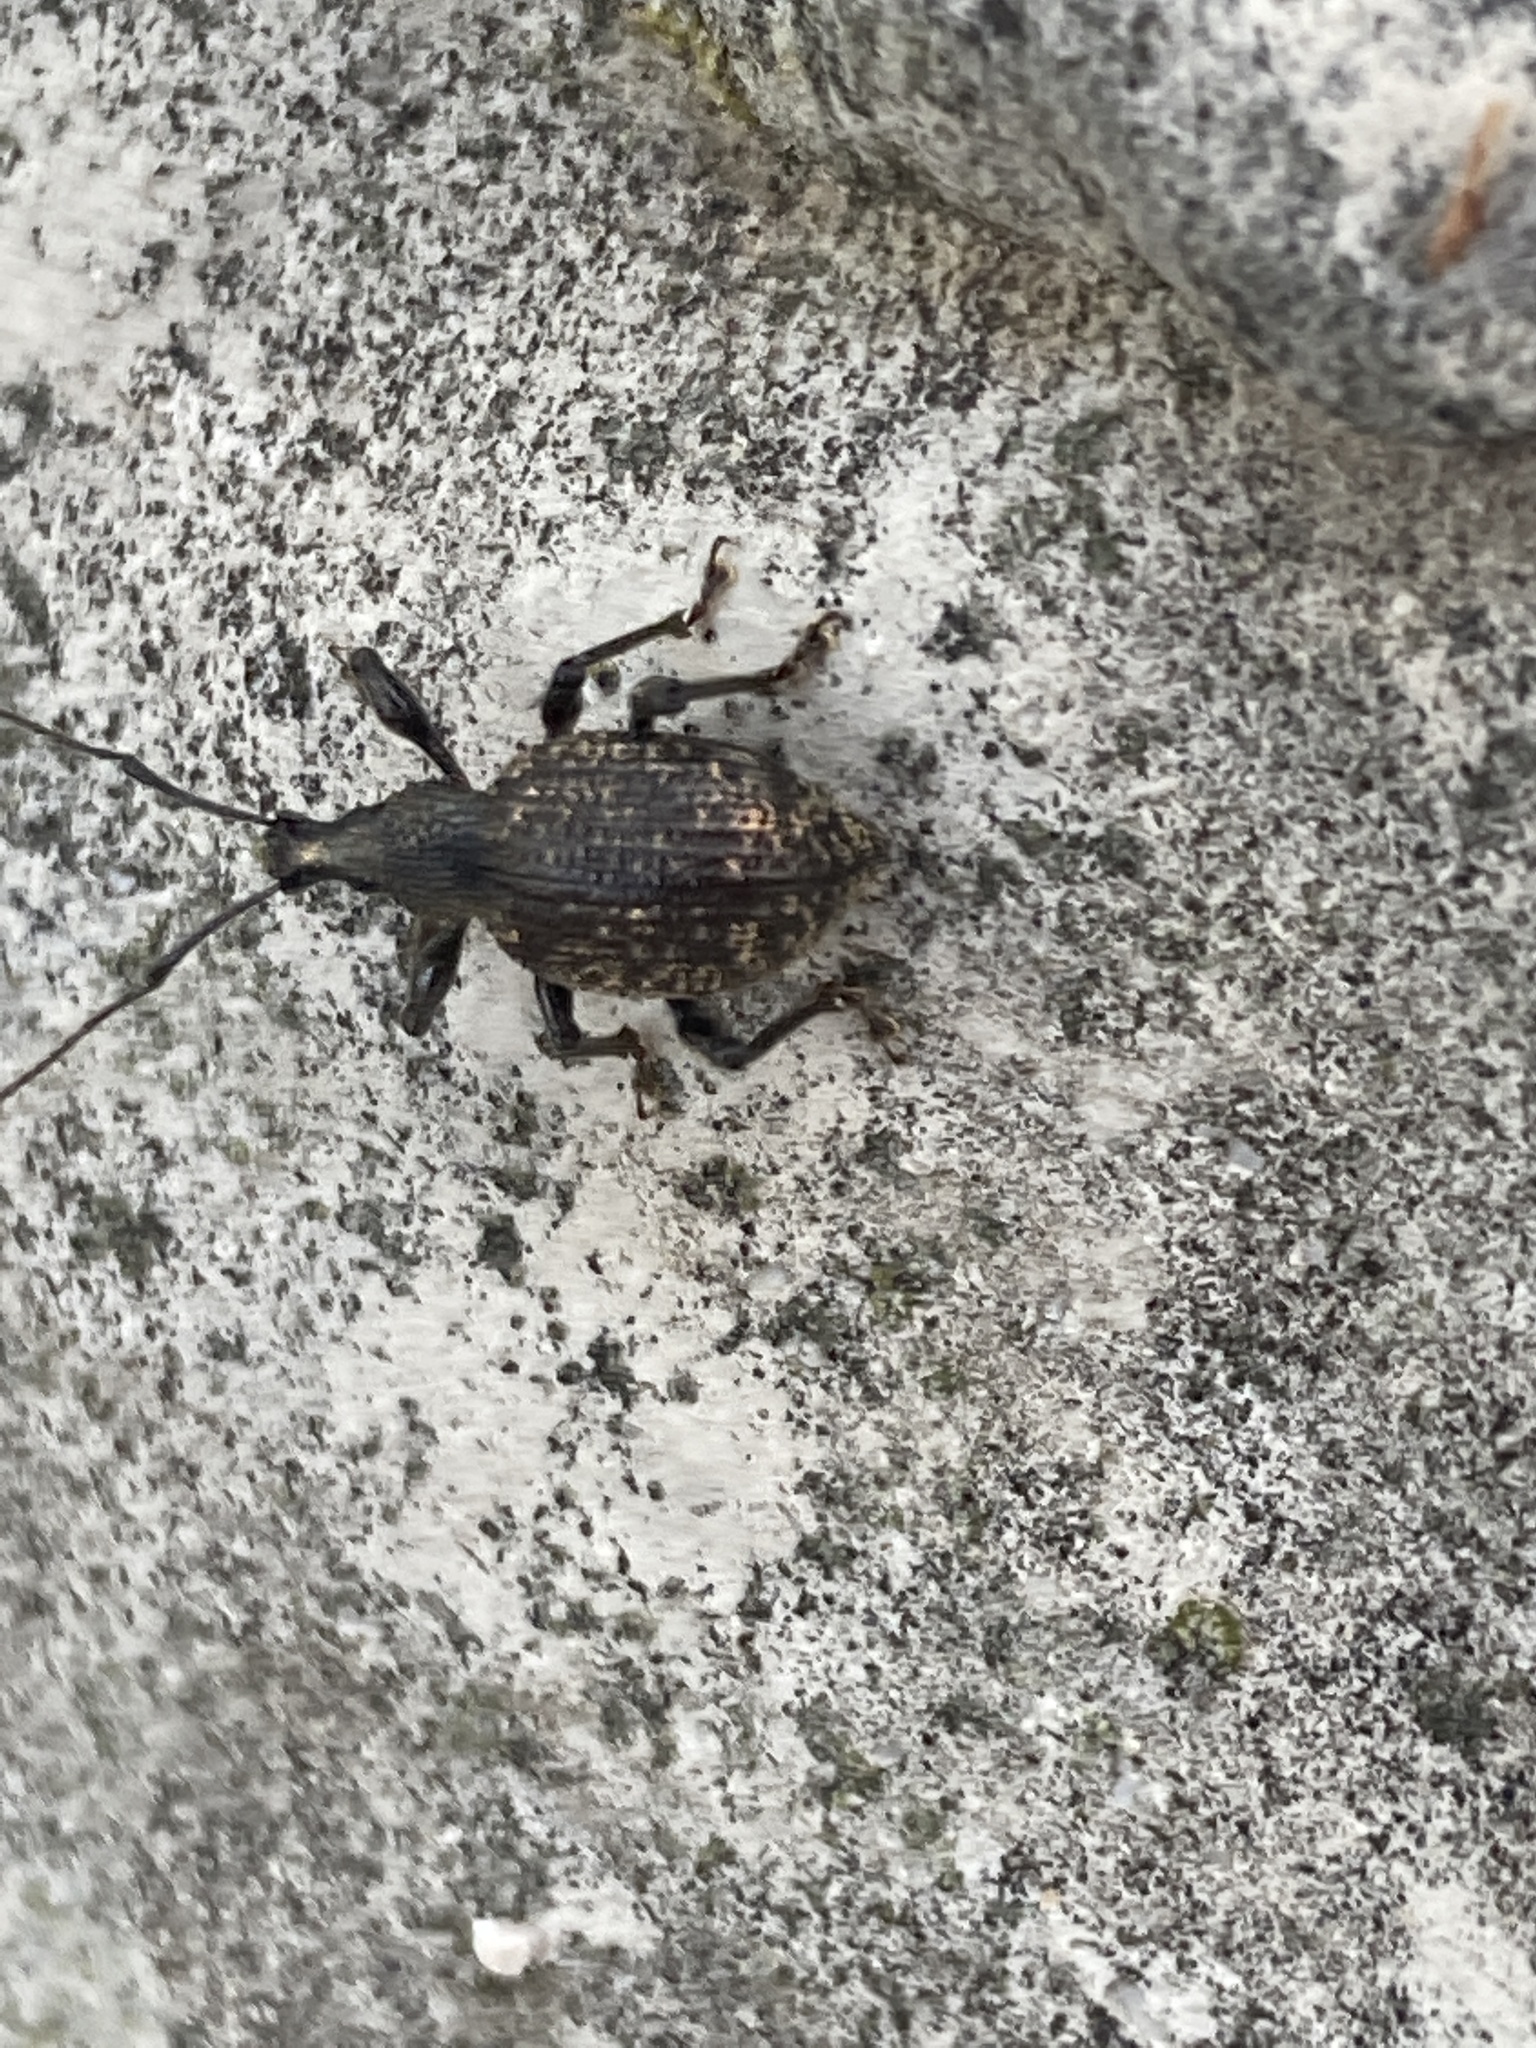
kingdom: Animalia
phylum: Arthropoda
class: Insecta
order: Coleoptera
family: Curculionidae
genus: Otiorhynchus
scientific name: Otiorhynchus
